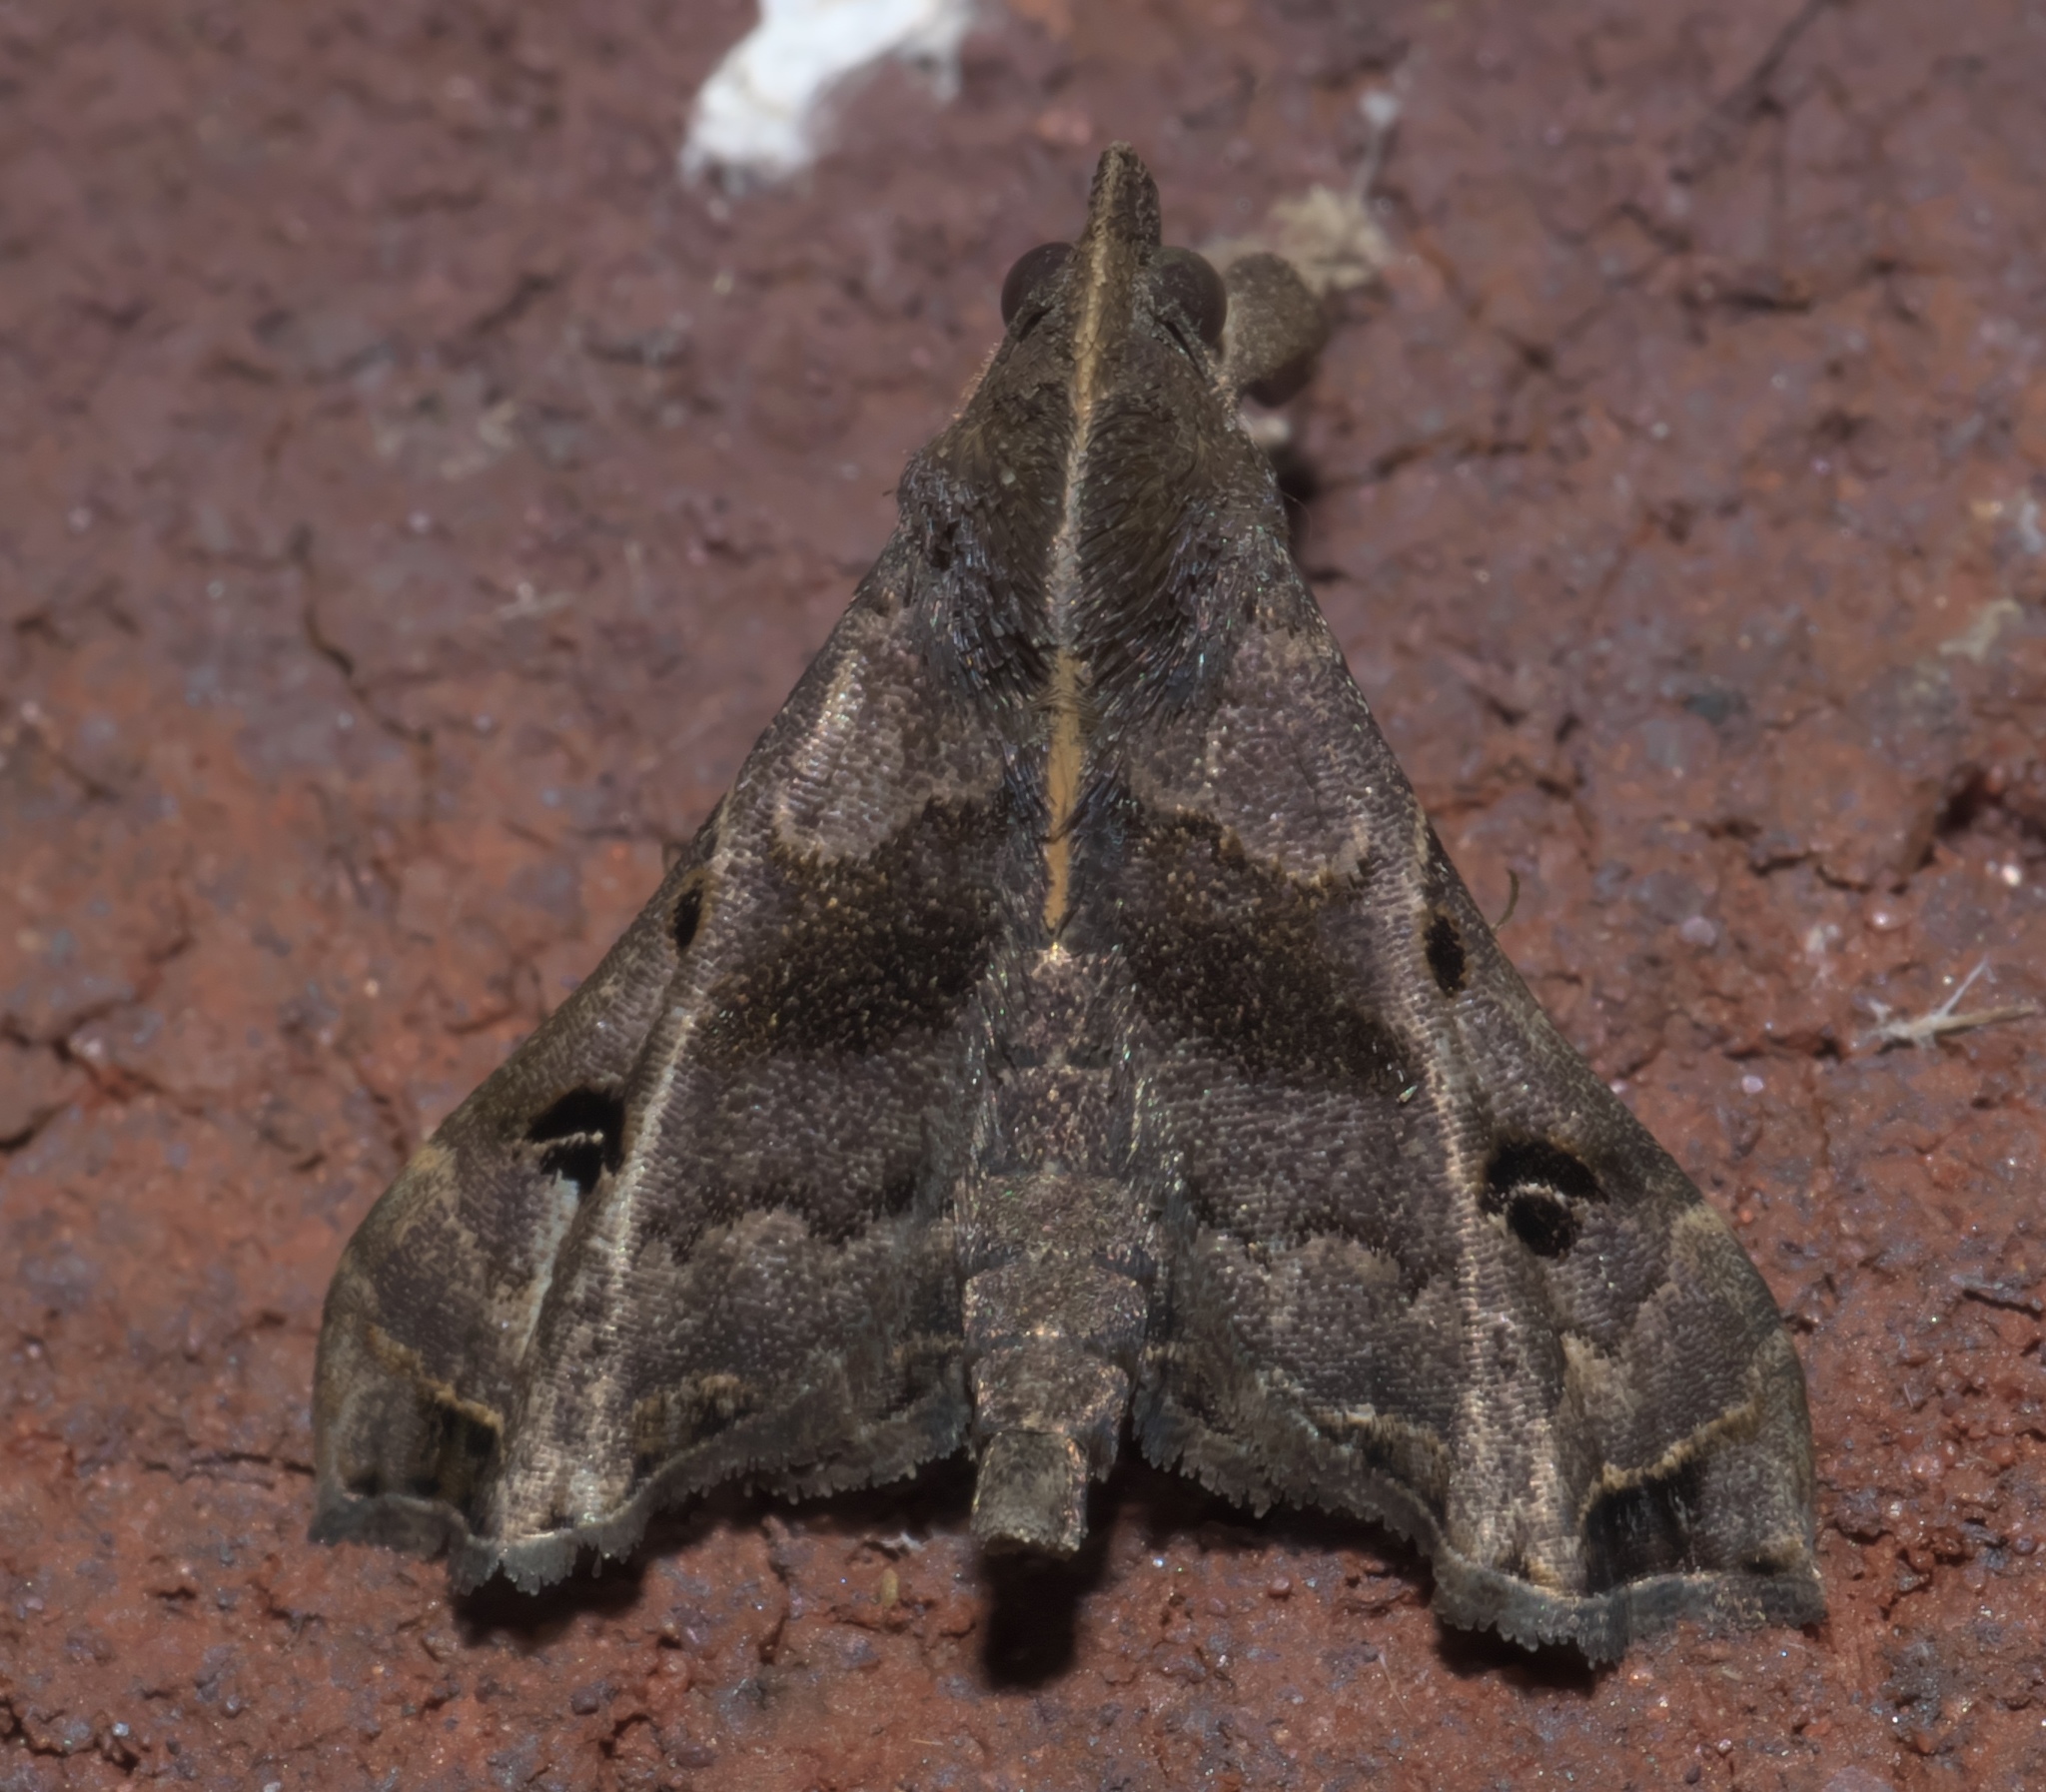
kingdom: Animalia
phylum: Arthropoda
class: Insecta
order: Lepidoptera
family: Erebidae
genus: Palthis
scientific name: Palthis asopialis
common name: Faint-spotted palthis moth
